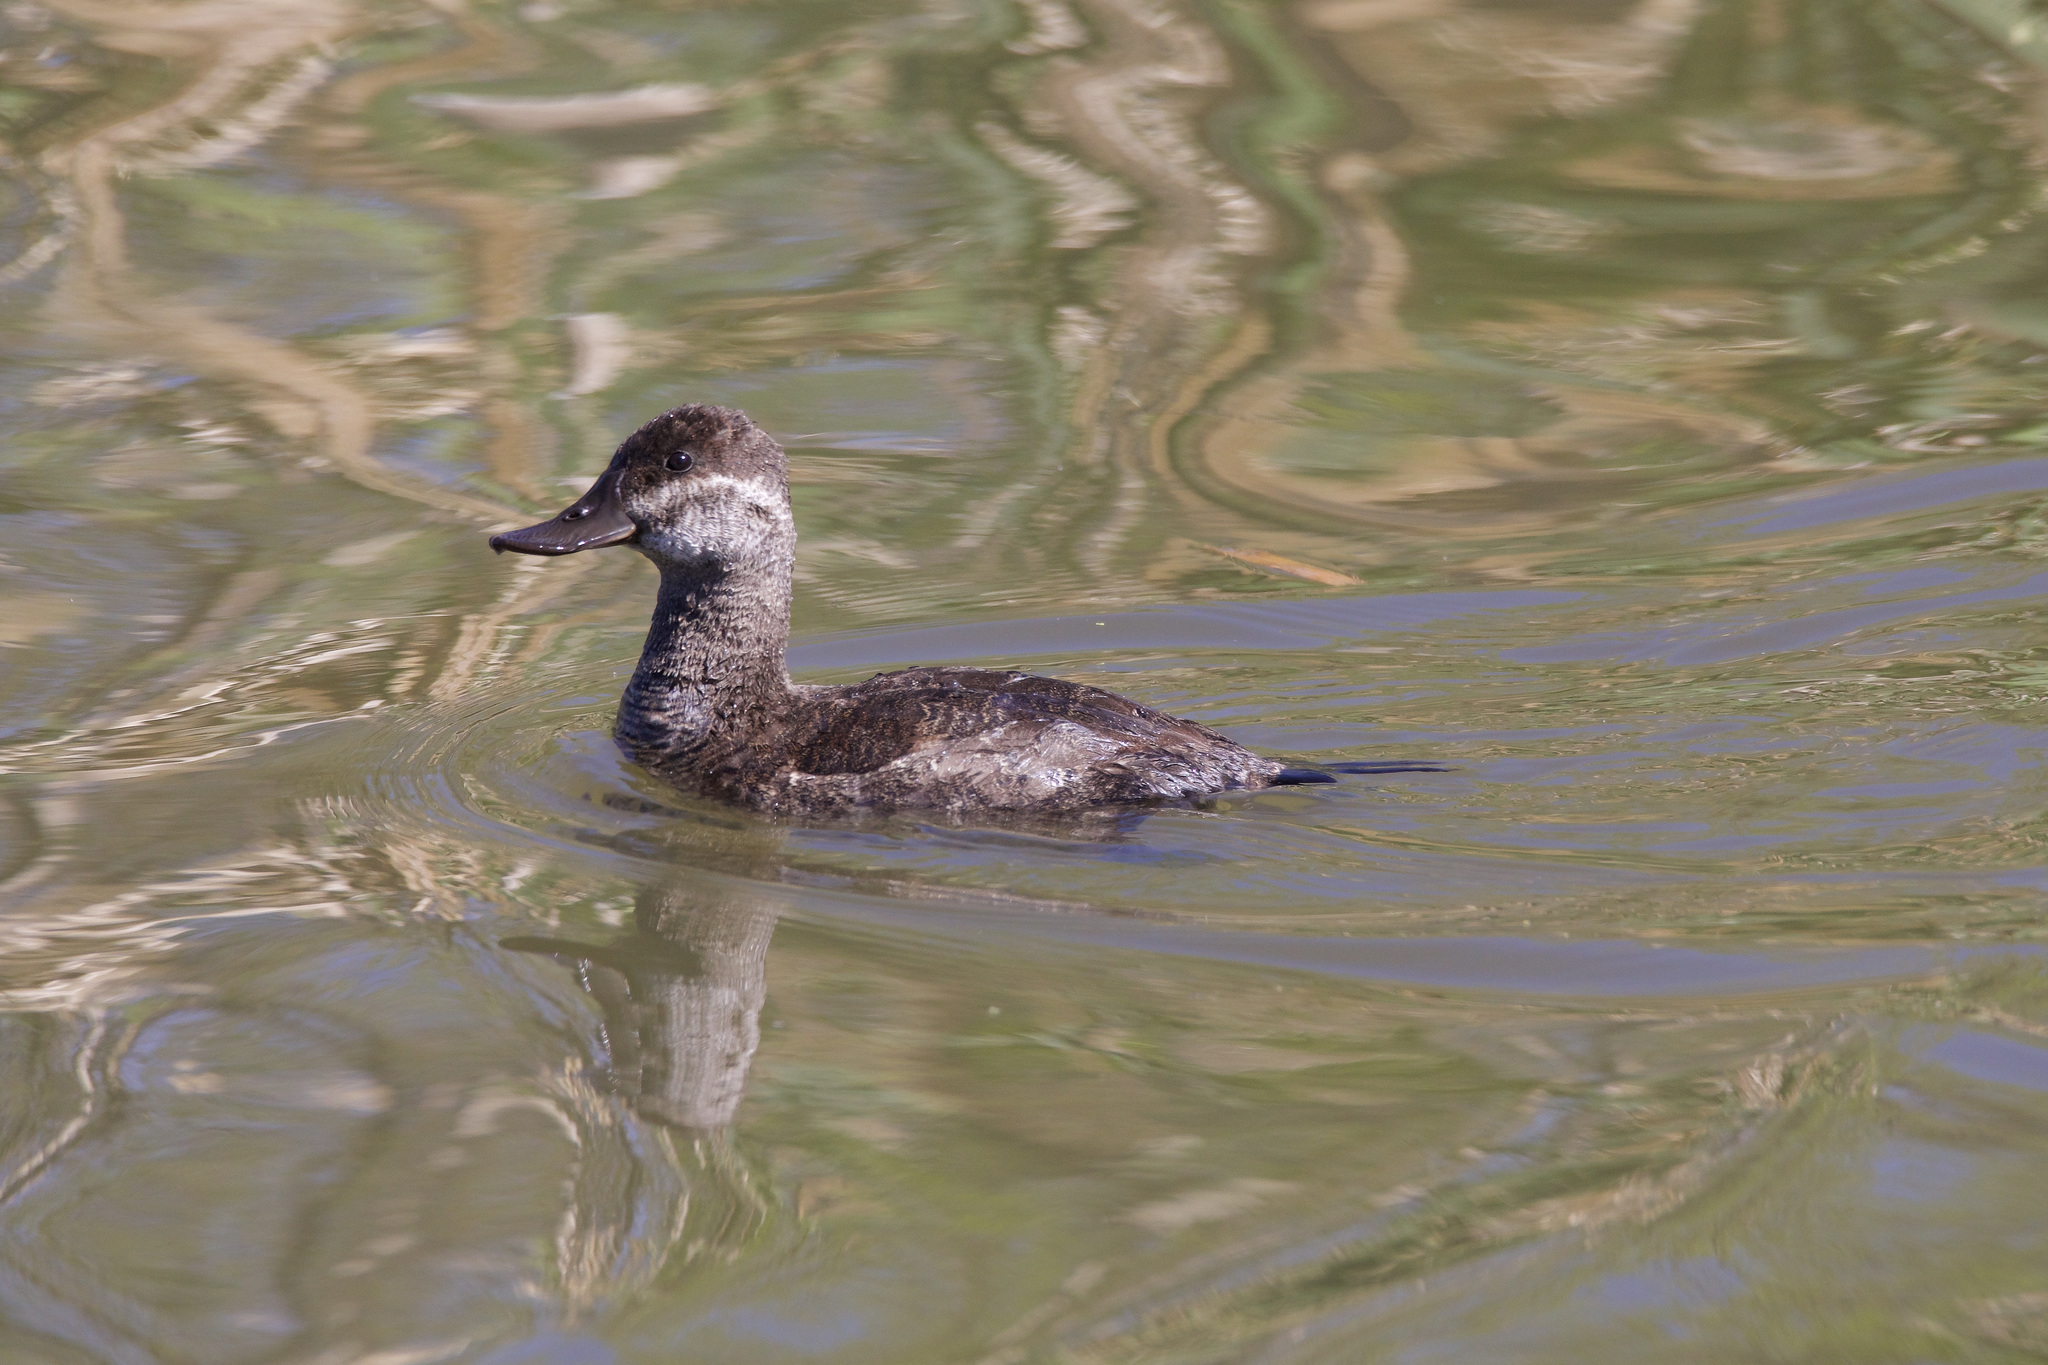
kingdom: Animalia
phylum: Chordata
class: Aves
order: Anseriformes
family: Anatidae
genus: Oxyura
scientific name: Oxyura jamaicensis
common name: Ruddy duck
